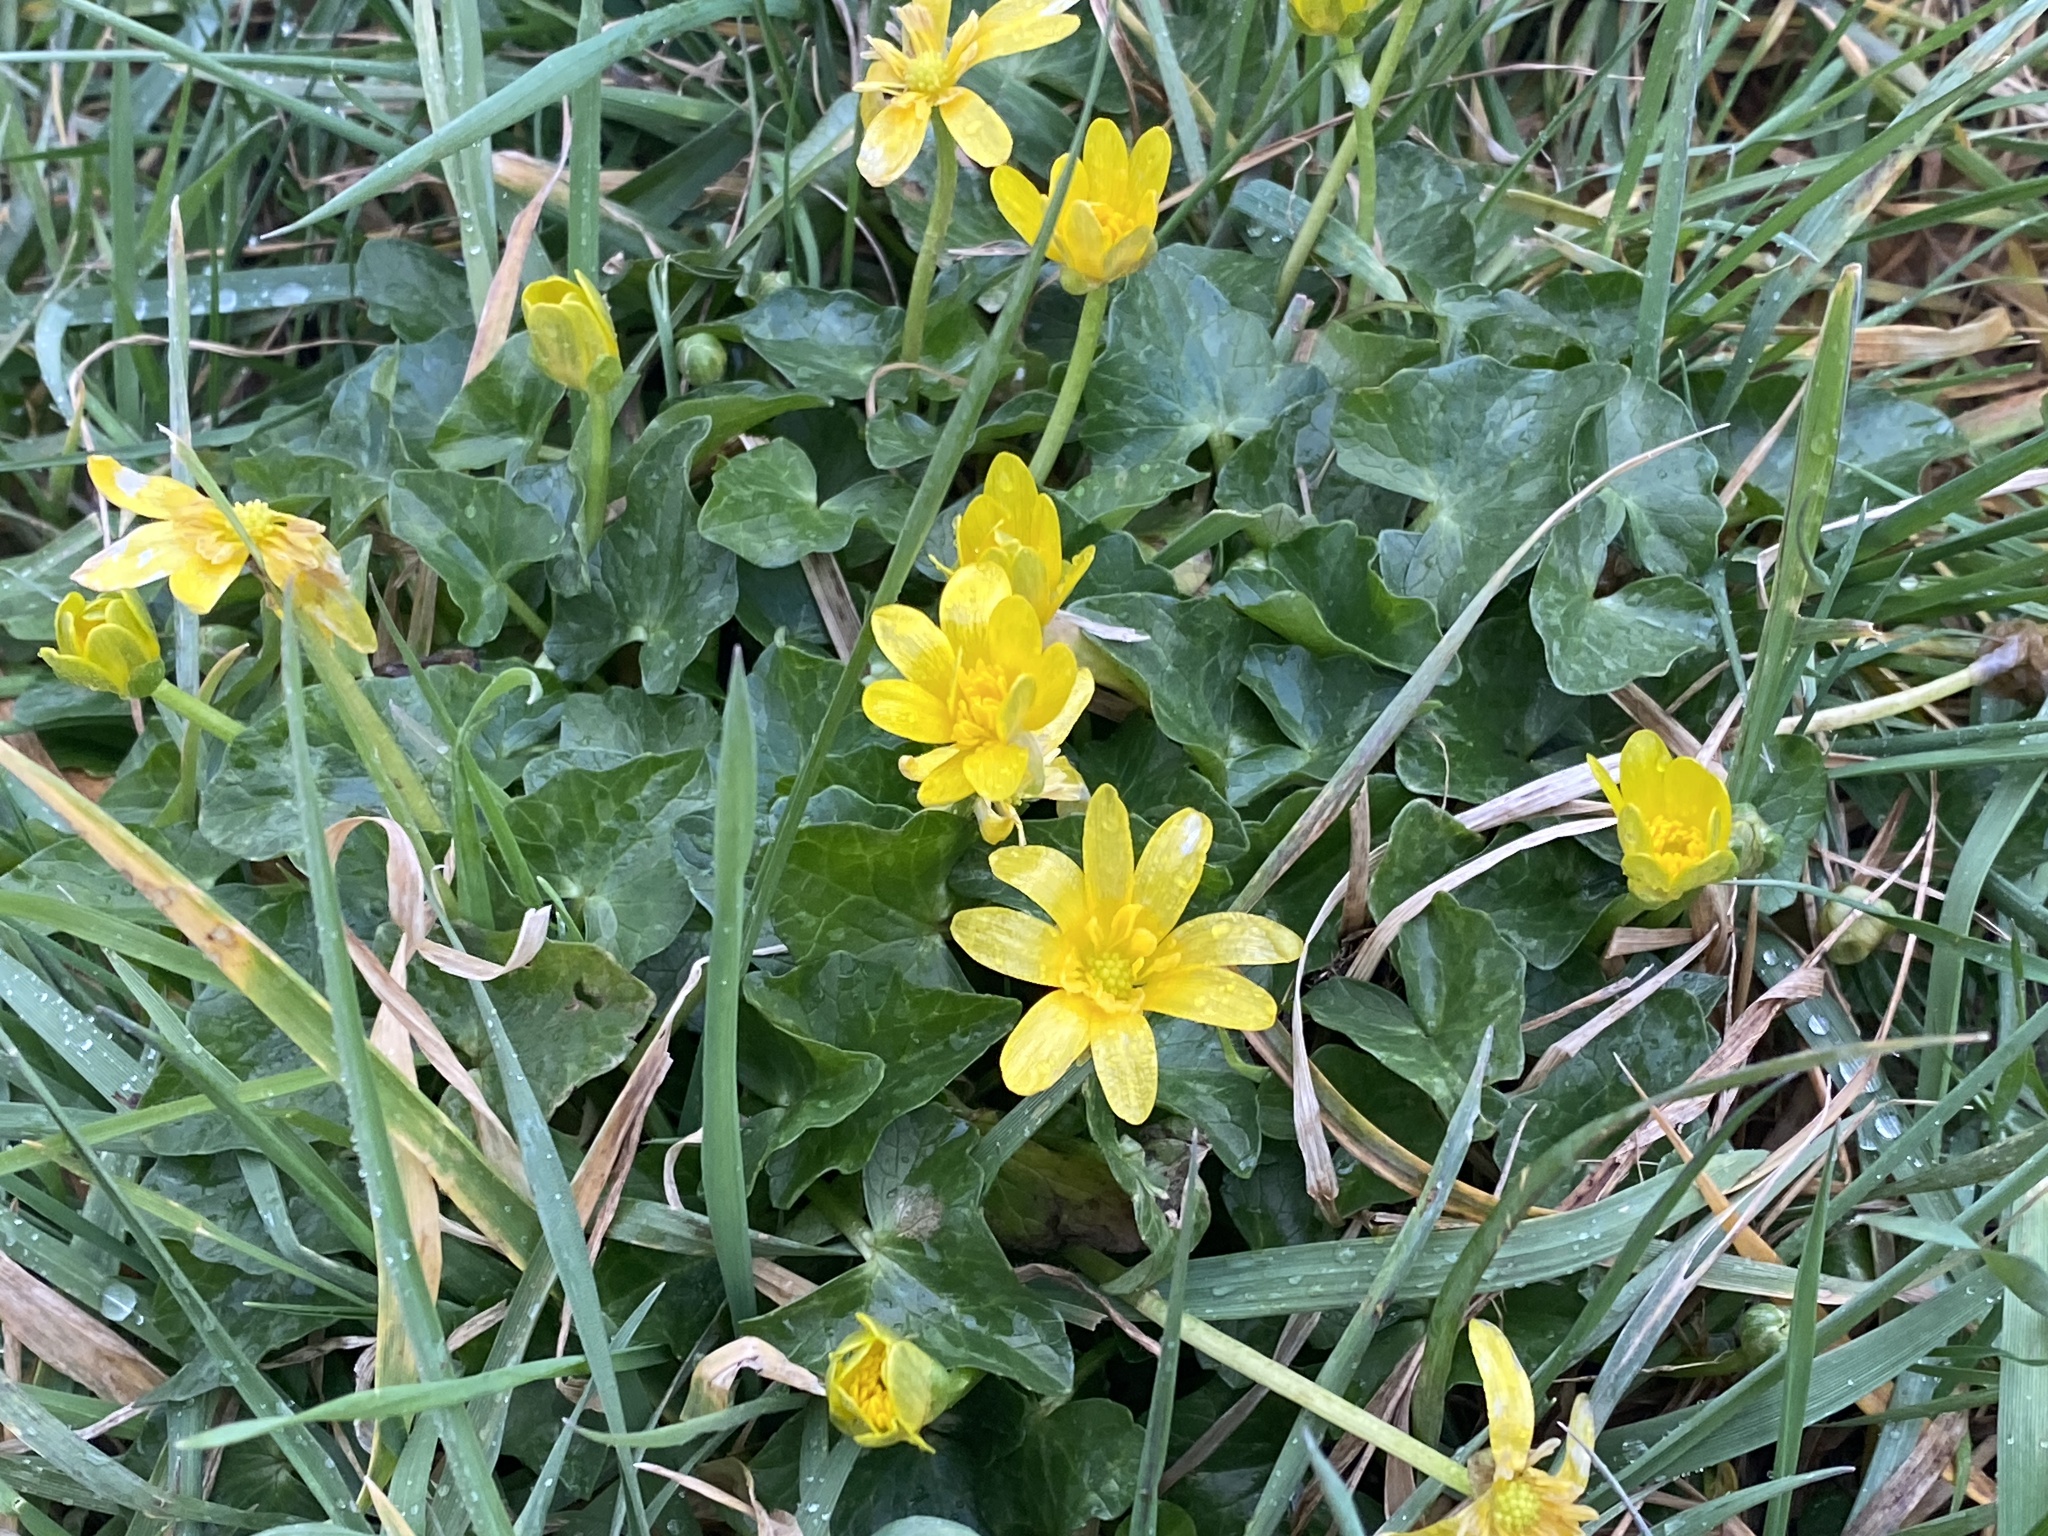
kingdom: Plantae
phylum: Tracheophyta
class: Magnoliopsida
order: Ranunculales
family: Ranunculaceae
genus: Ficaria
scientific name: Ficaria verna
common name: Lesser celandine
